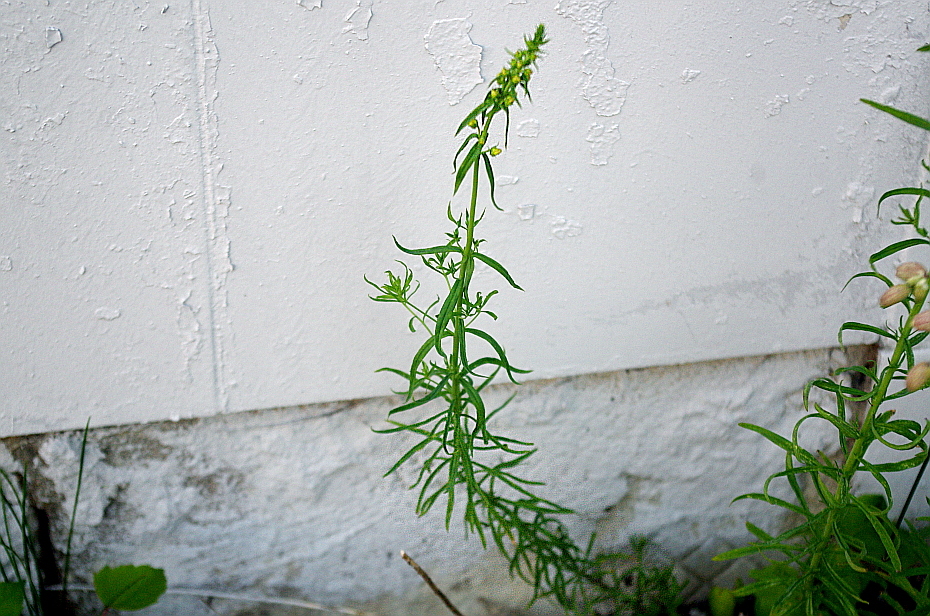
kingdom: Plantae
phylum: Tracheophyta
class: Magnoliopsida
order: Lamiales
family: Plantaginaceae
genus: Linaria
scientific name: Linaria vulgaris
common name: Butter and eggs
